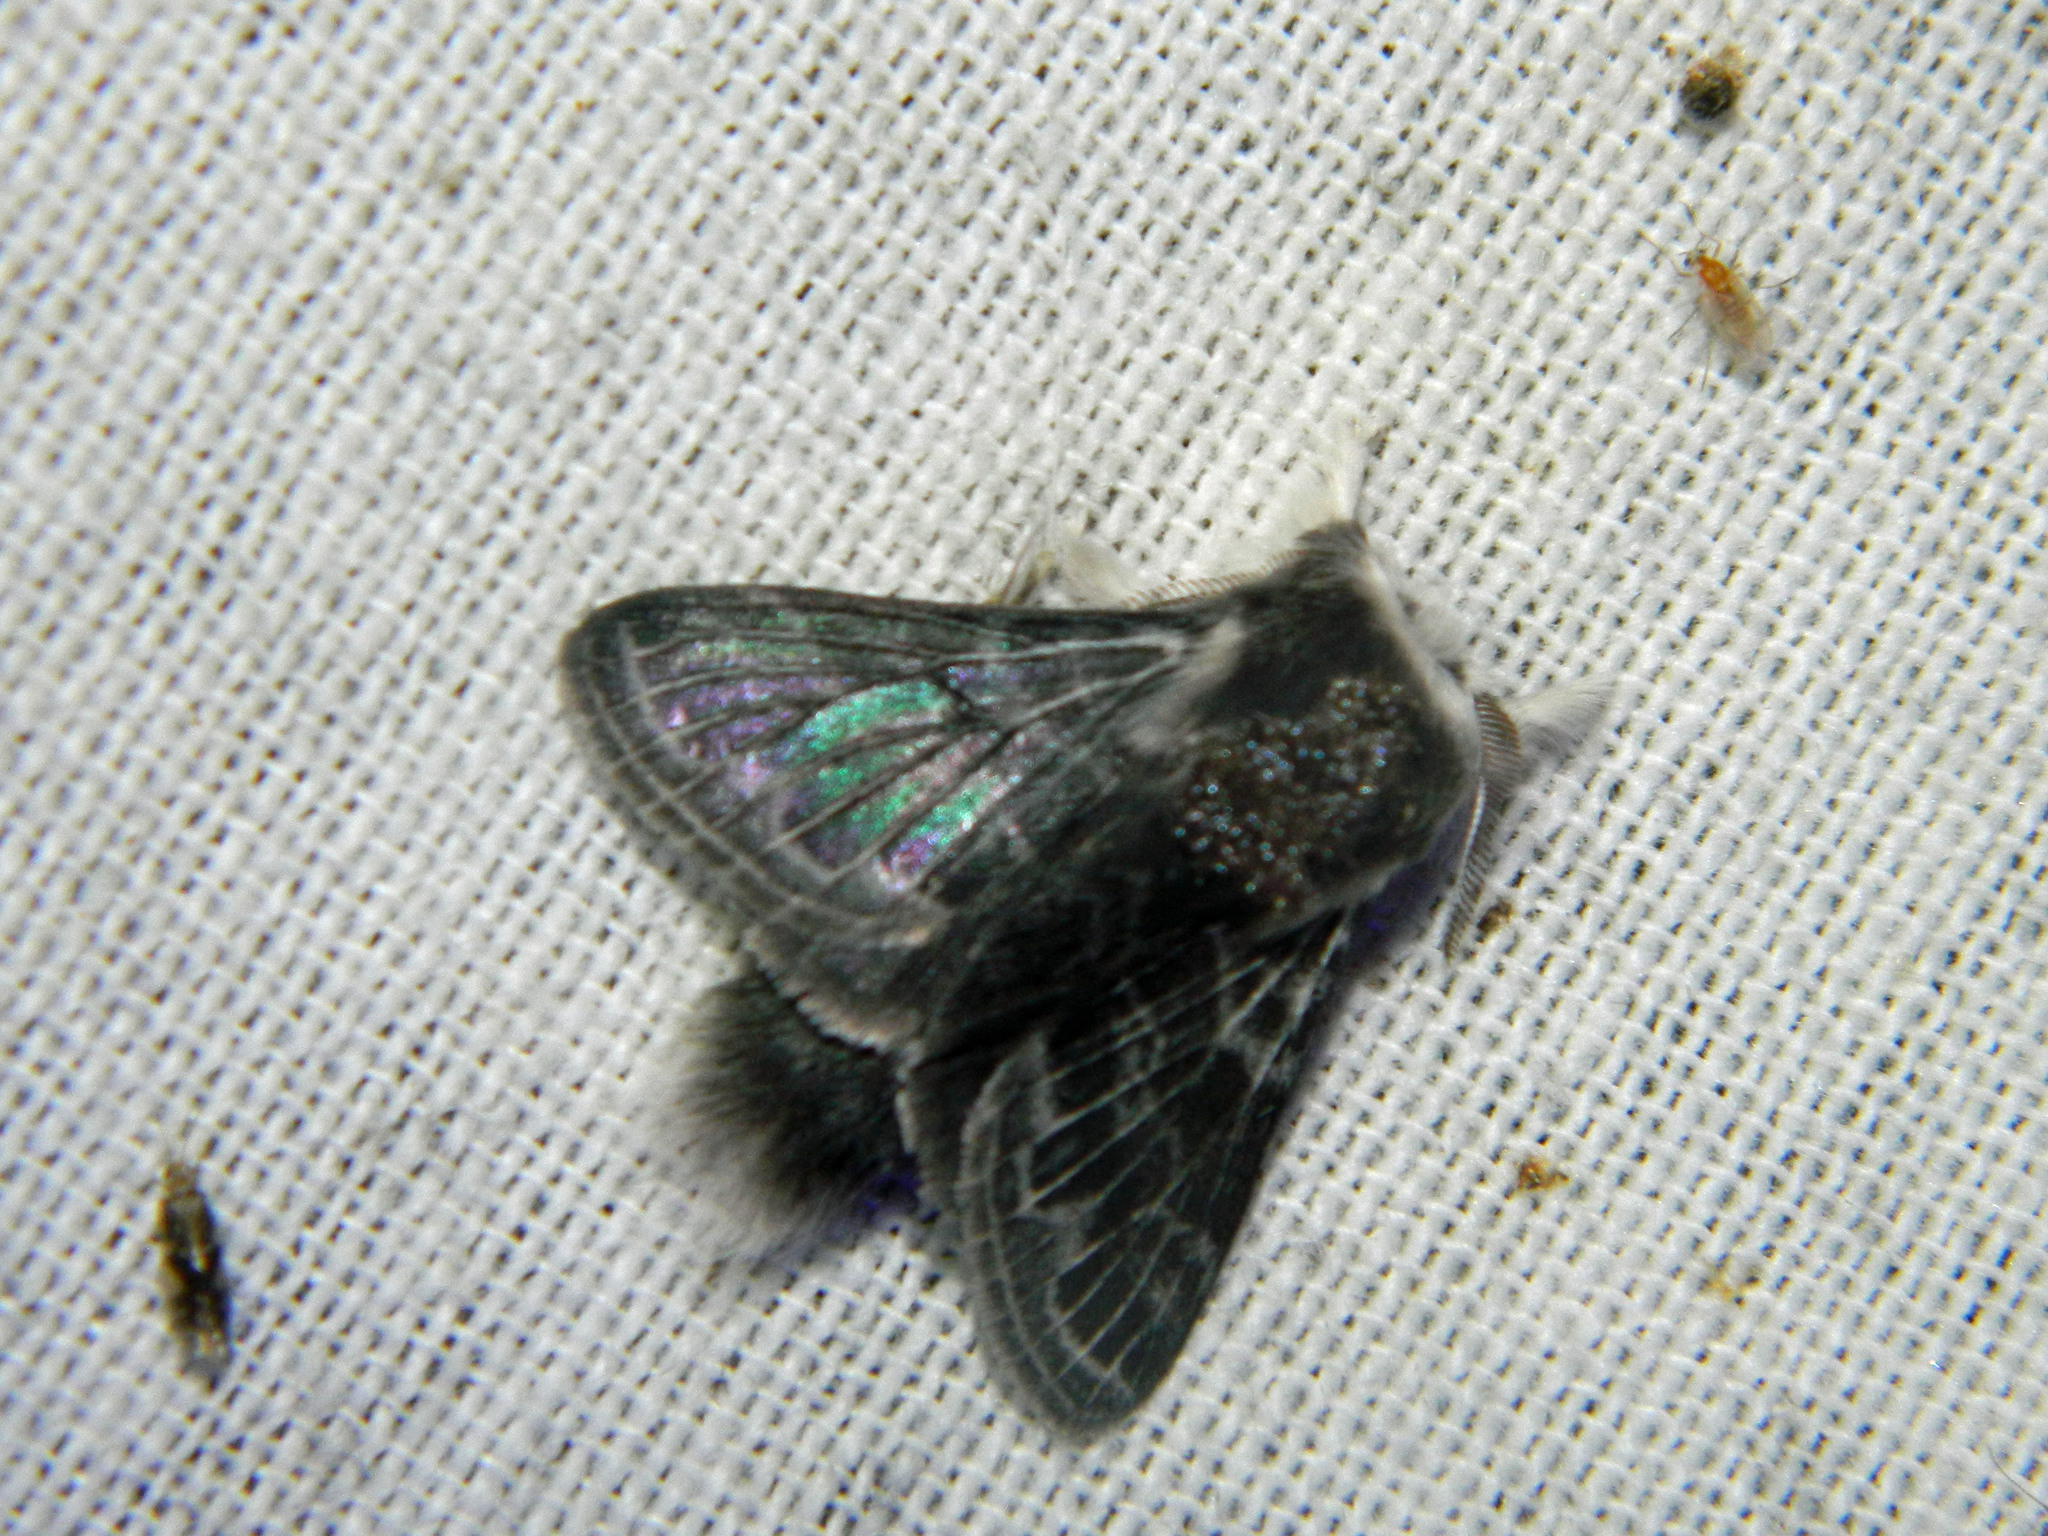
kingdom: Animalia
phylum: Arthropoda
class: Insecta
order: Lepidoptera
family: Lasiocampidae
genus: Tolype
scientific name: Tolype laricis
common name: Larch tolype moth
